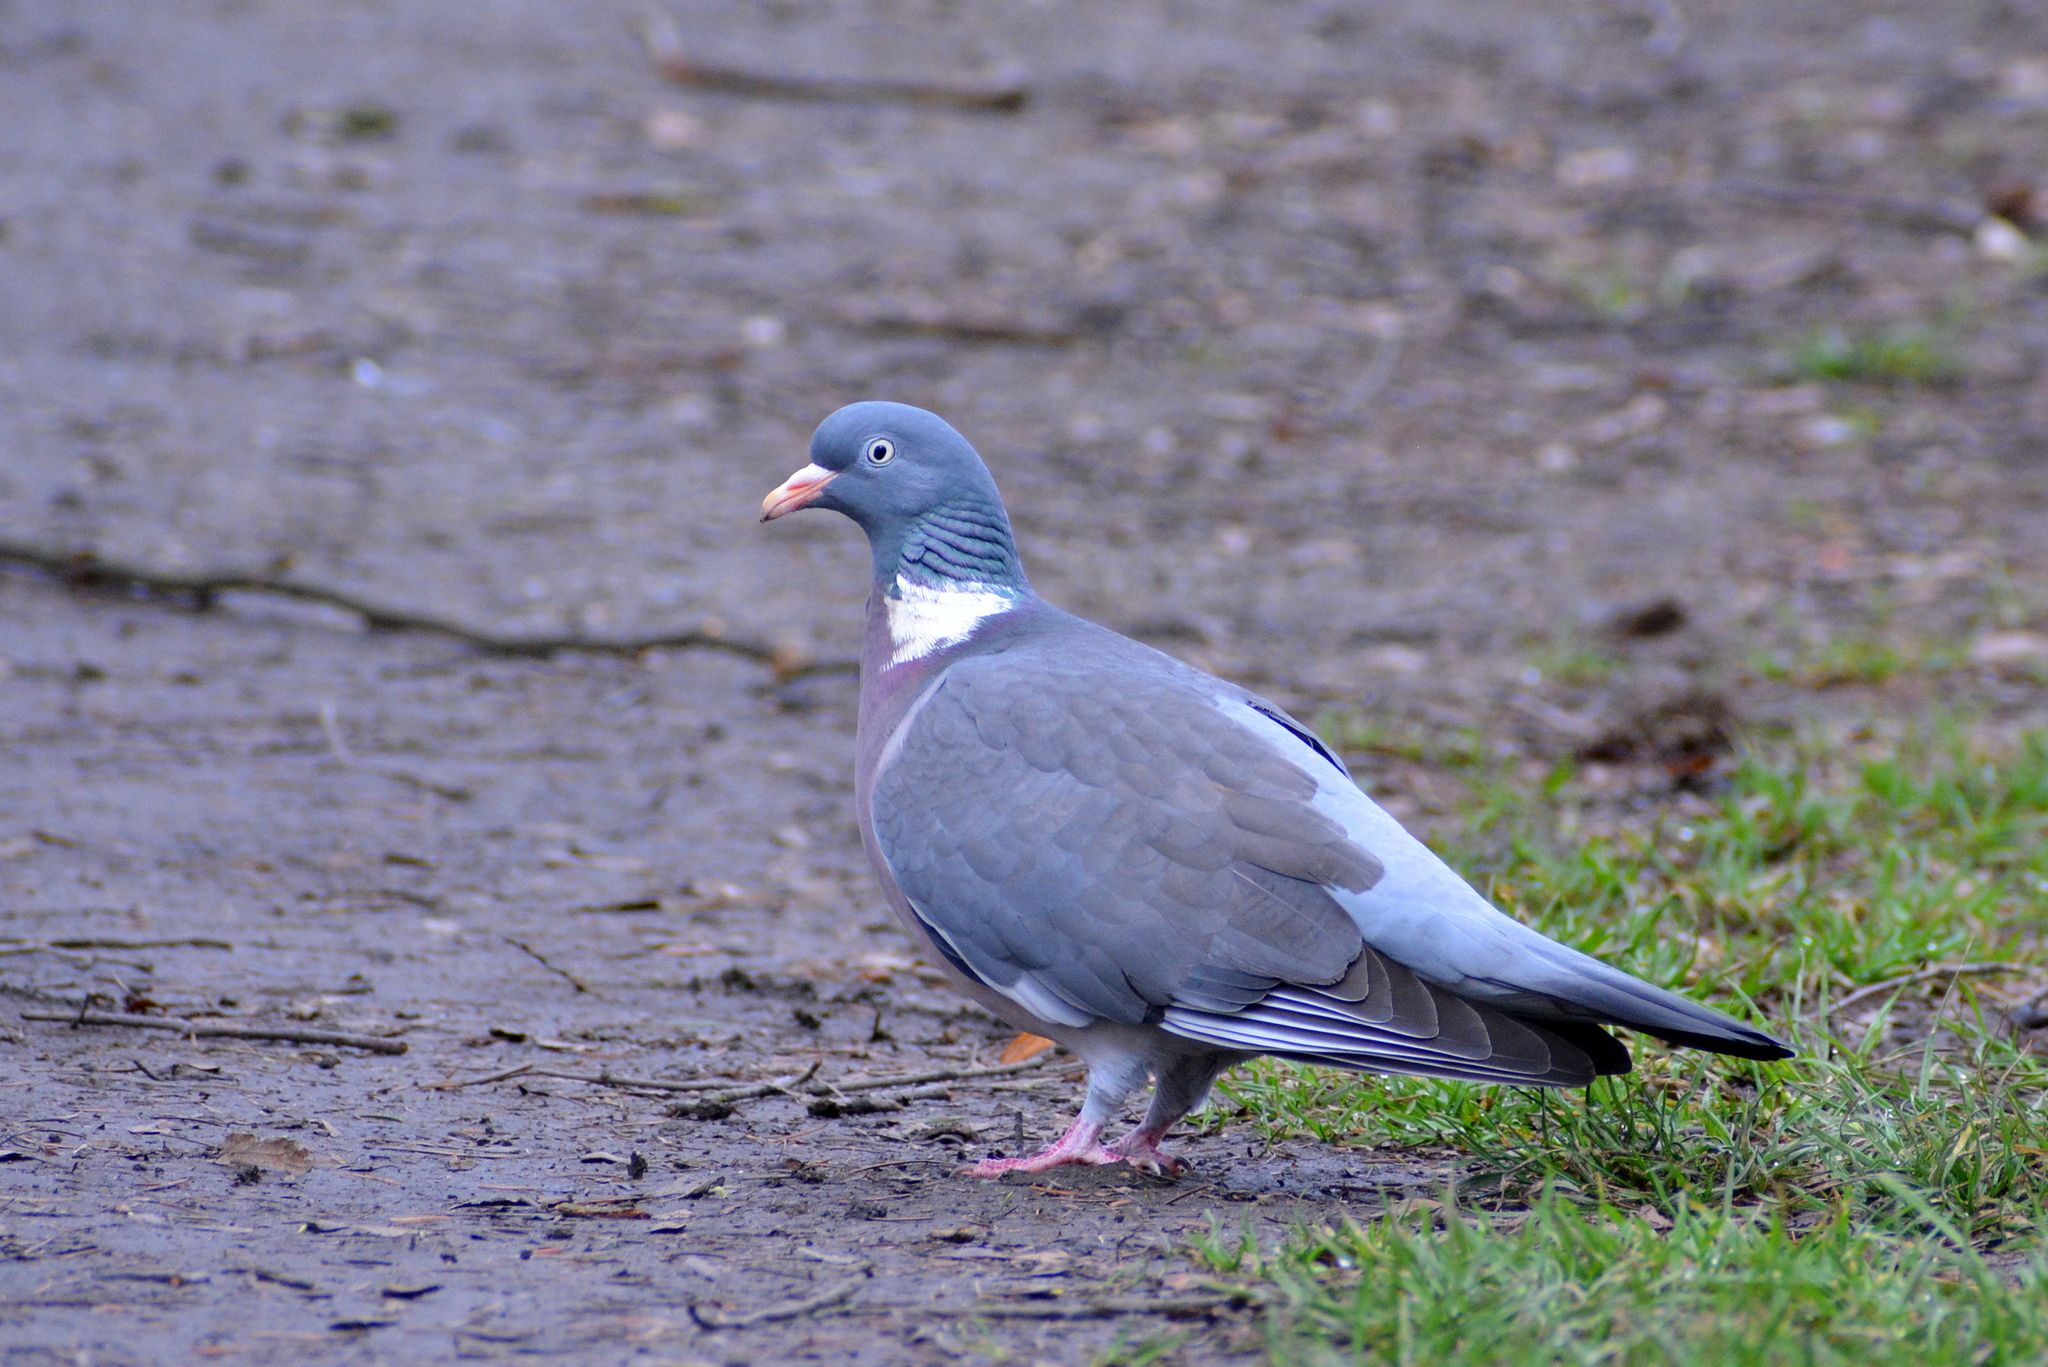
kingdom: Animalia
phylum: Chordata
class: Aves
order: Columbiformes
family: Columbidae
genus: Columba
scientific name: Columba palumbus
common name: Common wood pigeon
